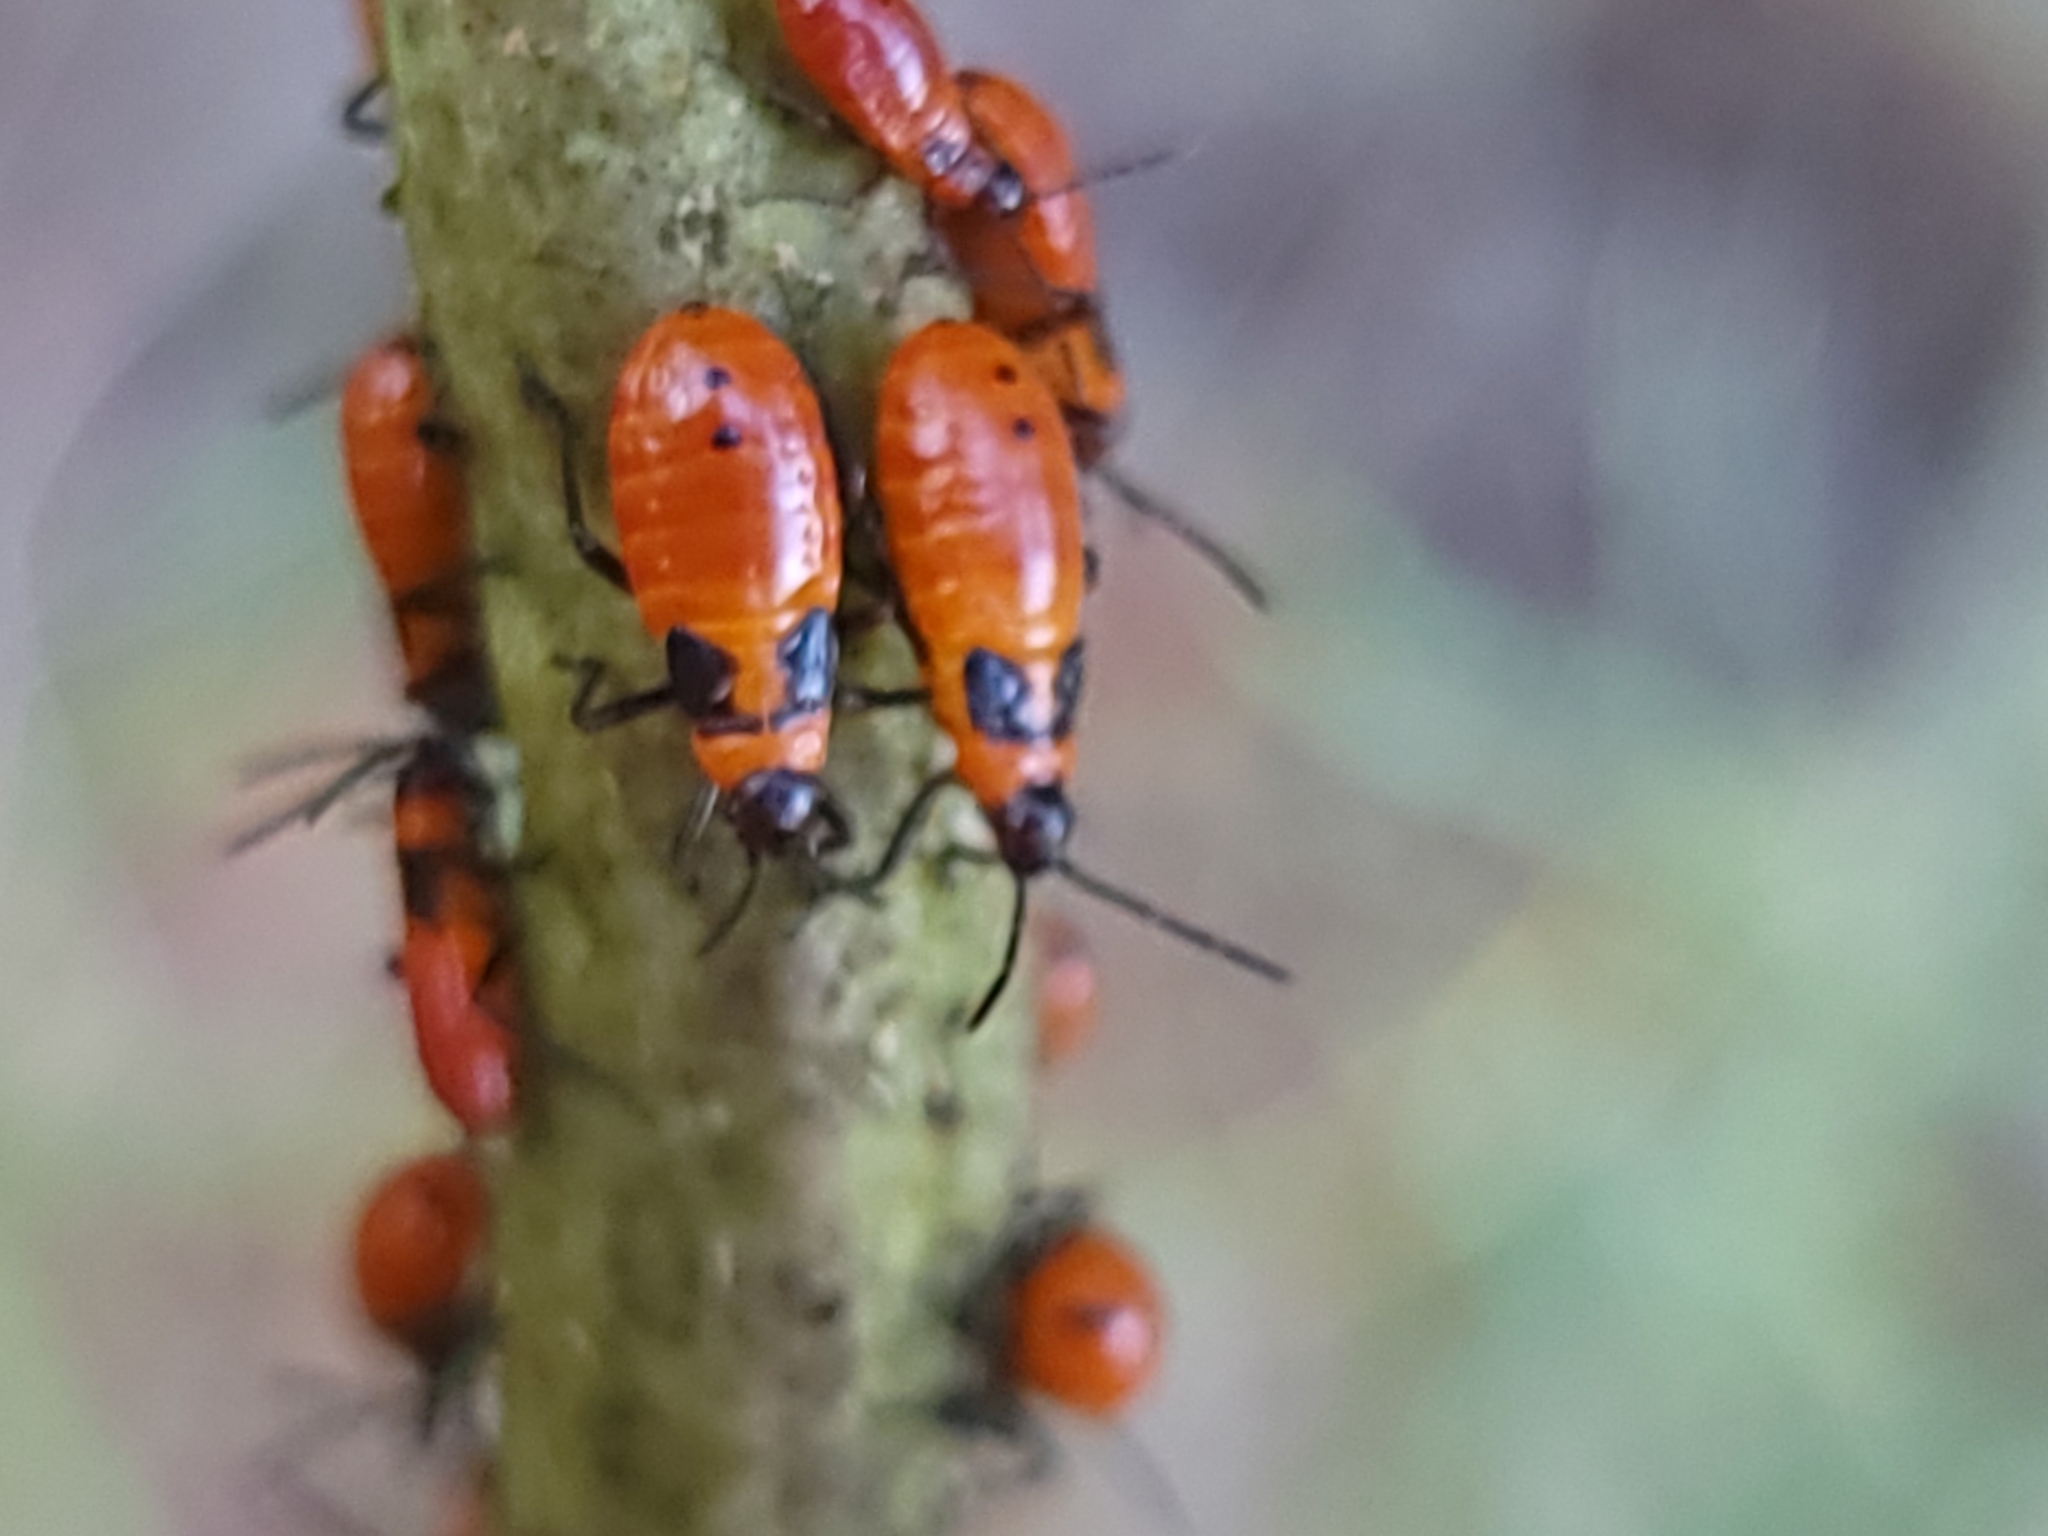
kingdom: Animalia
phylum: Arthropoda
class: Insecta
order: Hemiptera
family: Lygaeidae
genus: Oncopeltus
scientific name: Oncopeltus fasciatus
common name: Large milkweed bug
